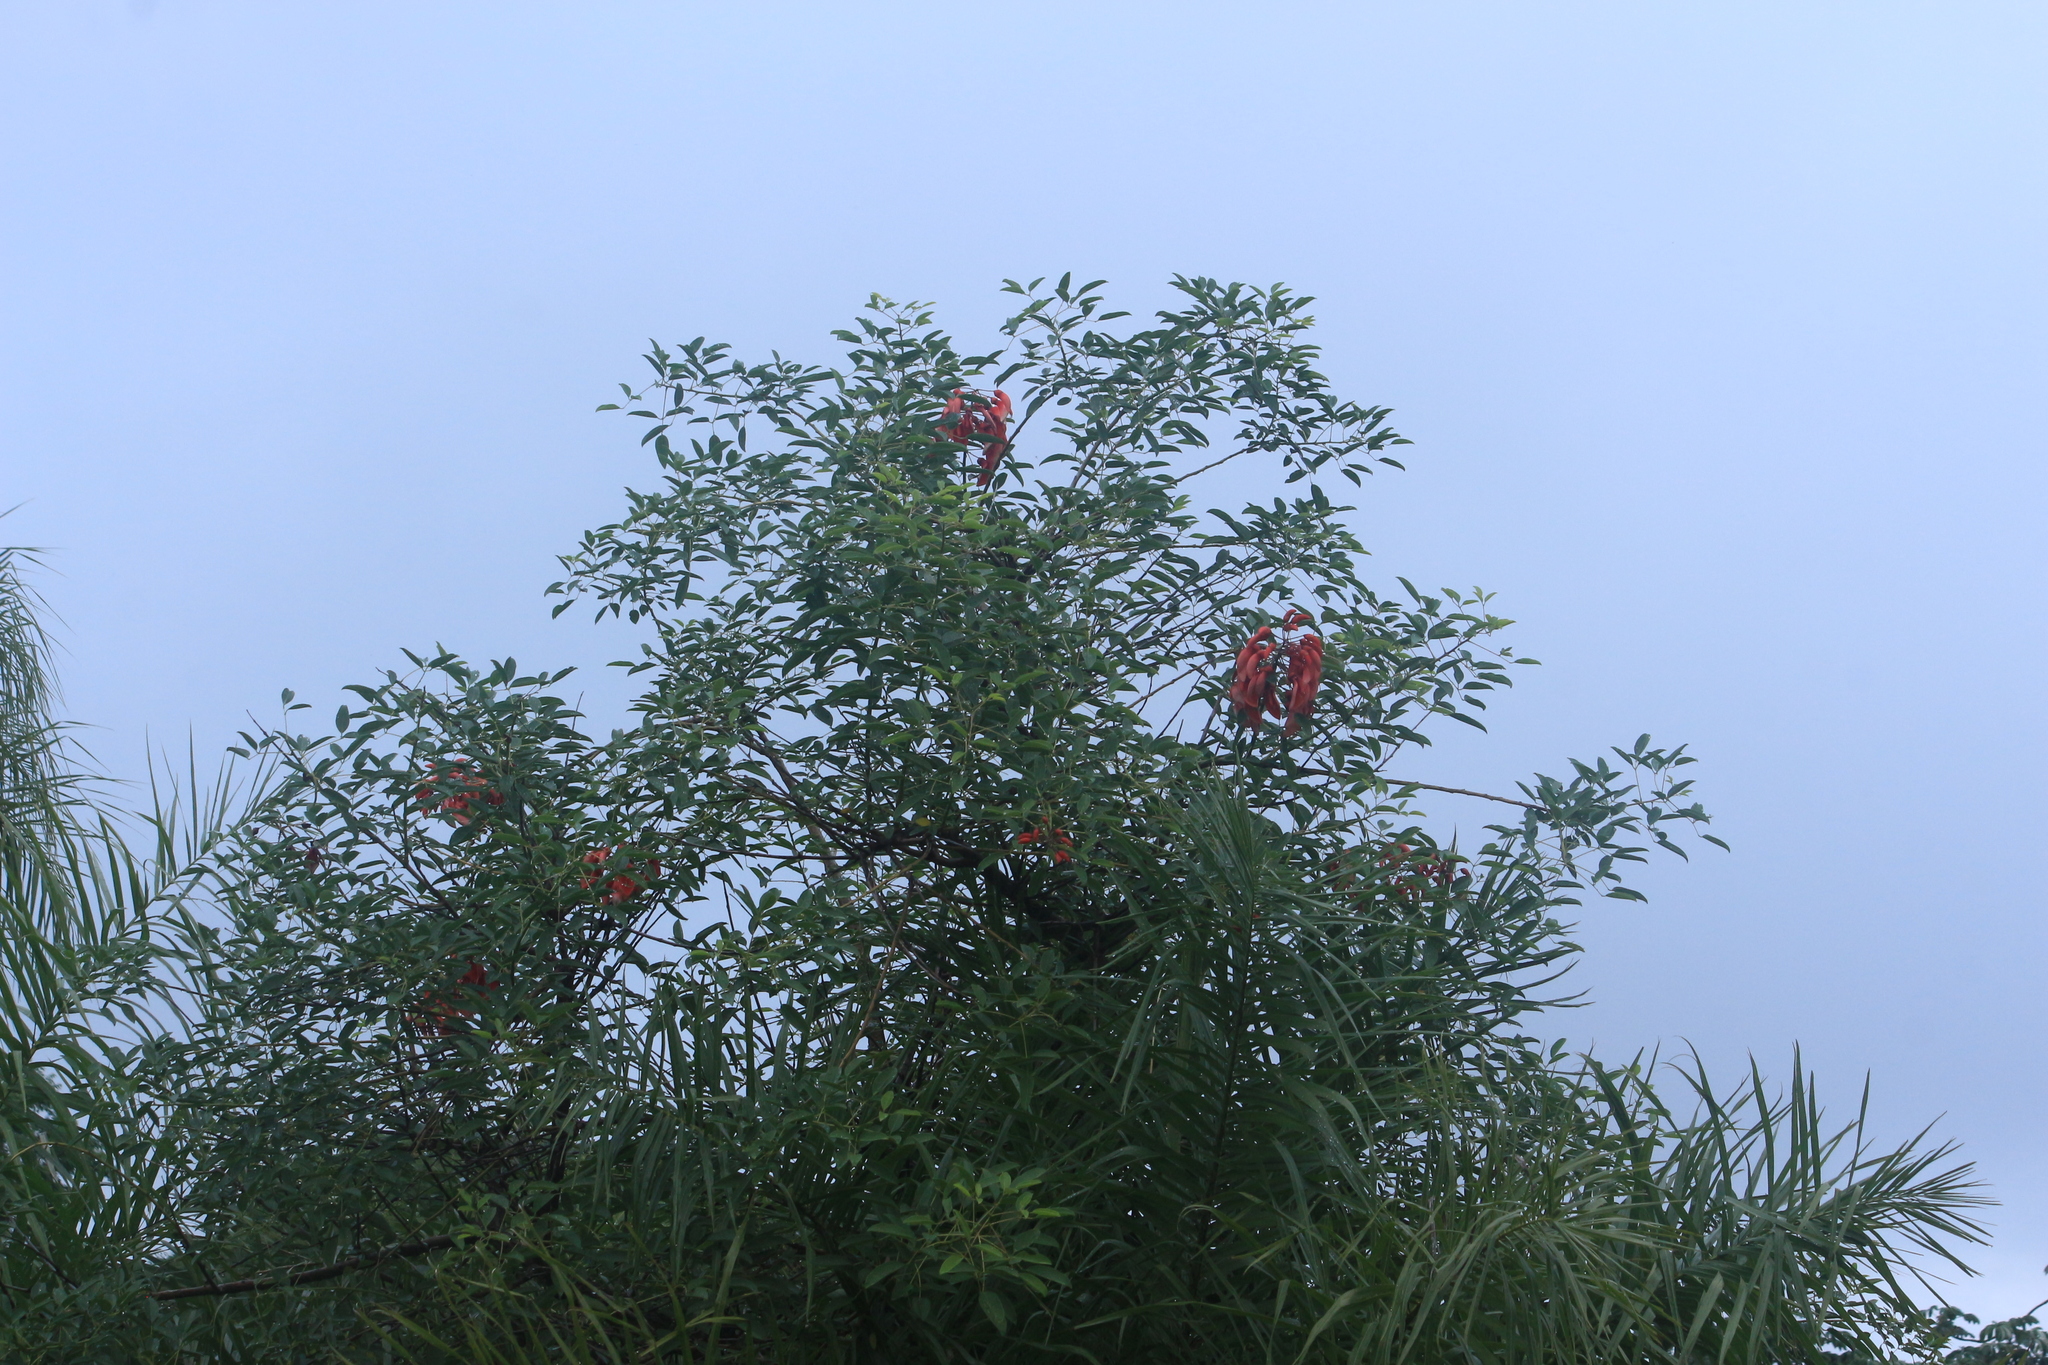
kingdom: Plantae
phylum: Tracheophyta
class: Magnoliopsida
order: Fabales
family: Fabaceae
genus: Erythrina
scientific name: Erythrina crista-galli
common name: Cockspur coral tree
